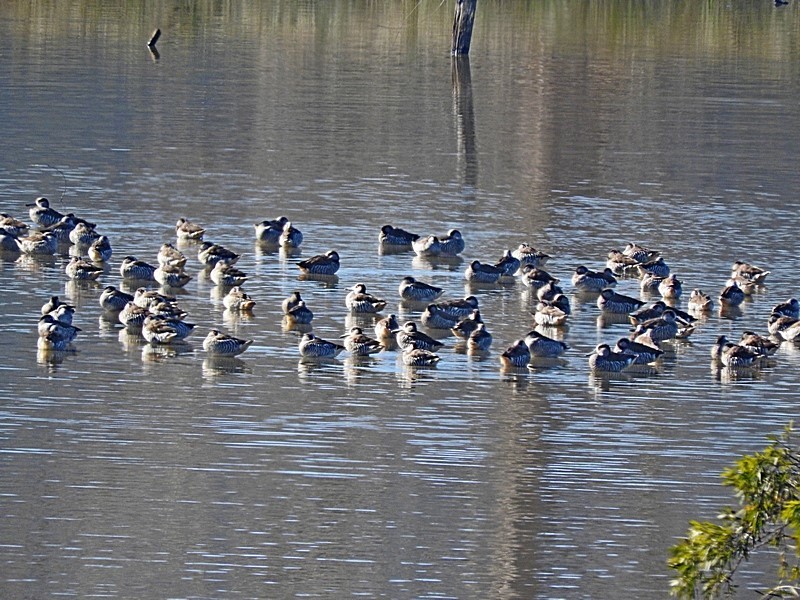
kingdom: Animalia
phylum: Chordata
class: Aves
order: Anseriformes
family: Anatidae
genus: Malacorhynchus
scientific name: Malacorhynchus membranaceus
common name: Pink-eared duck
